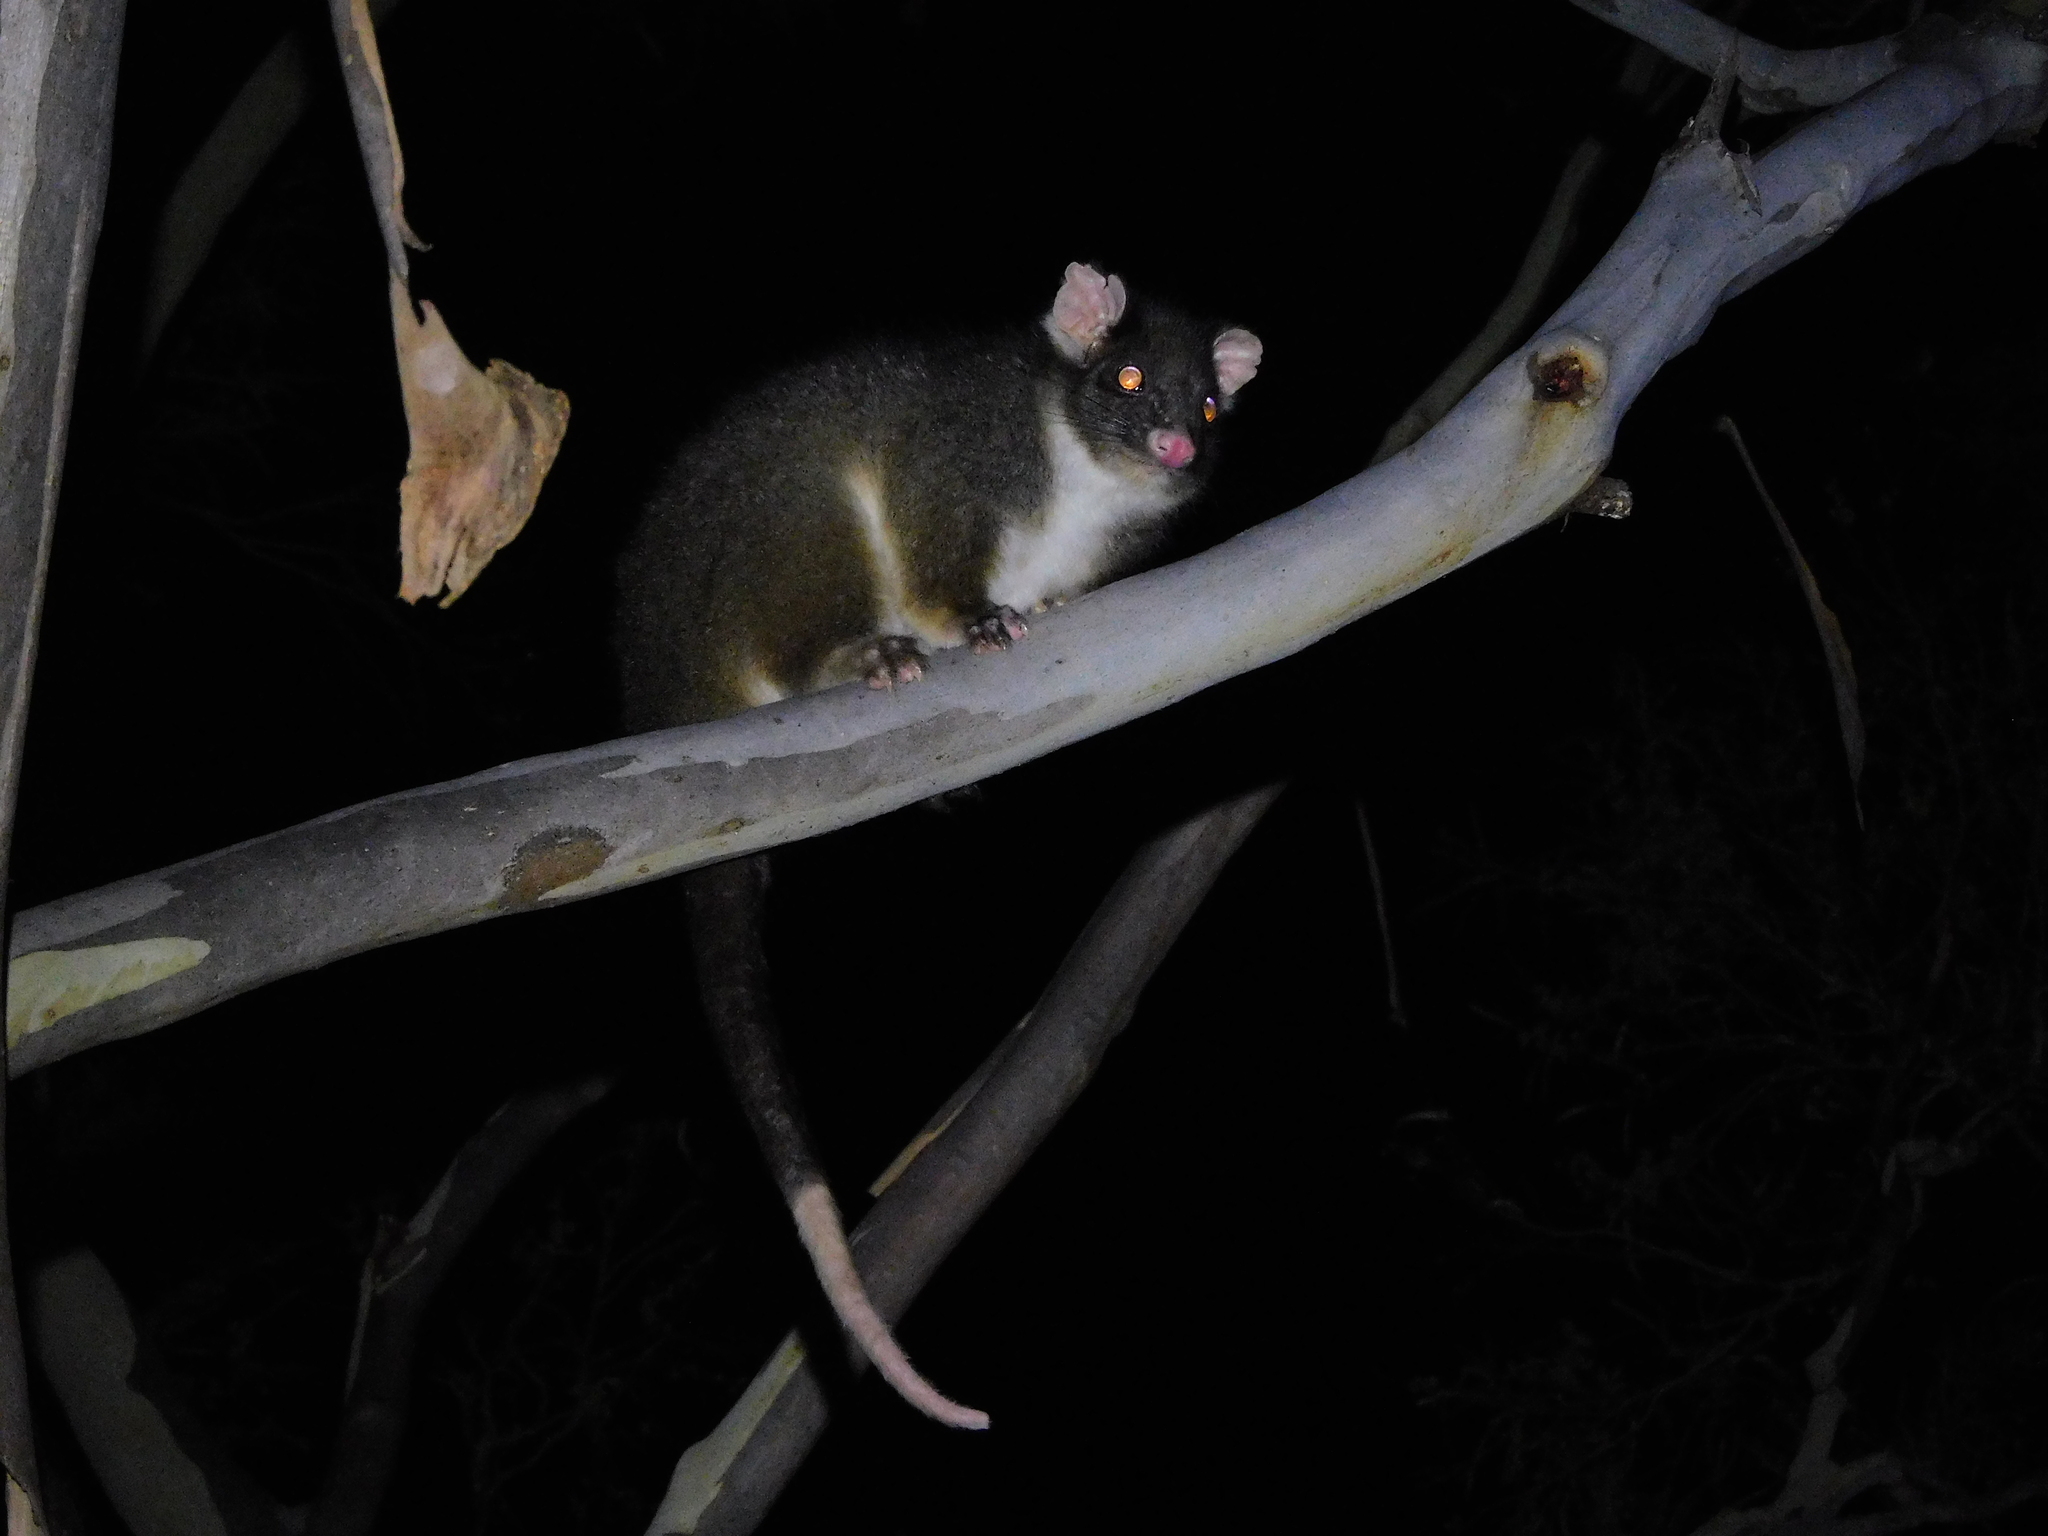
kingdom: Animalia
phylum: Chordata
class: Mammalia
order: Diprotodontia
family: Pseudocheiridae
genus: Pseudocheirus
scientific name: Pseudocheirus peregrinus
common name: Common ringtail possum
